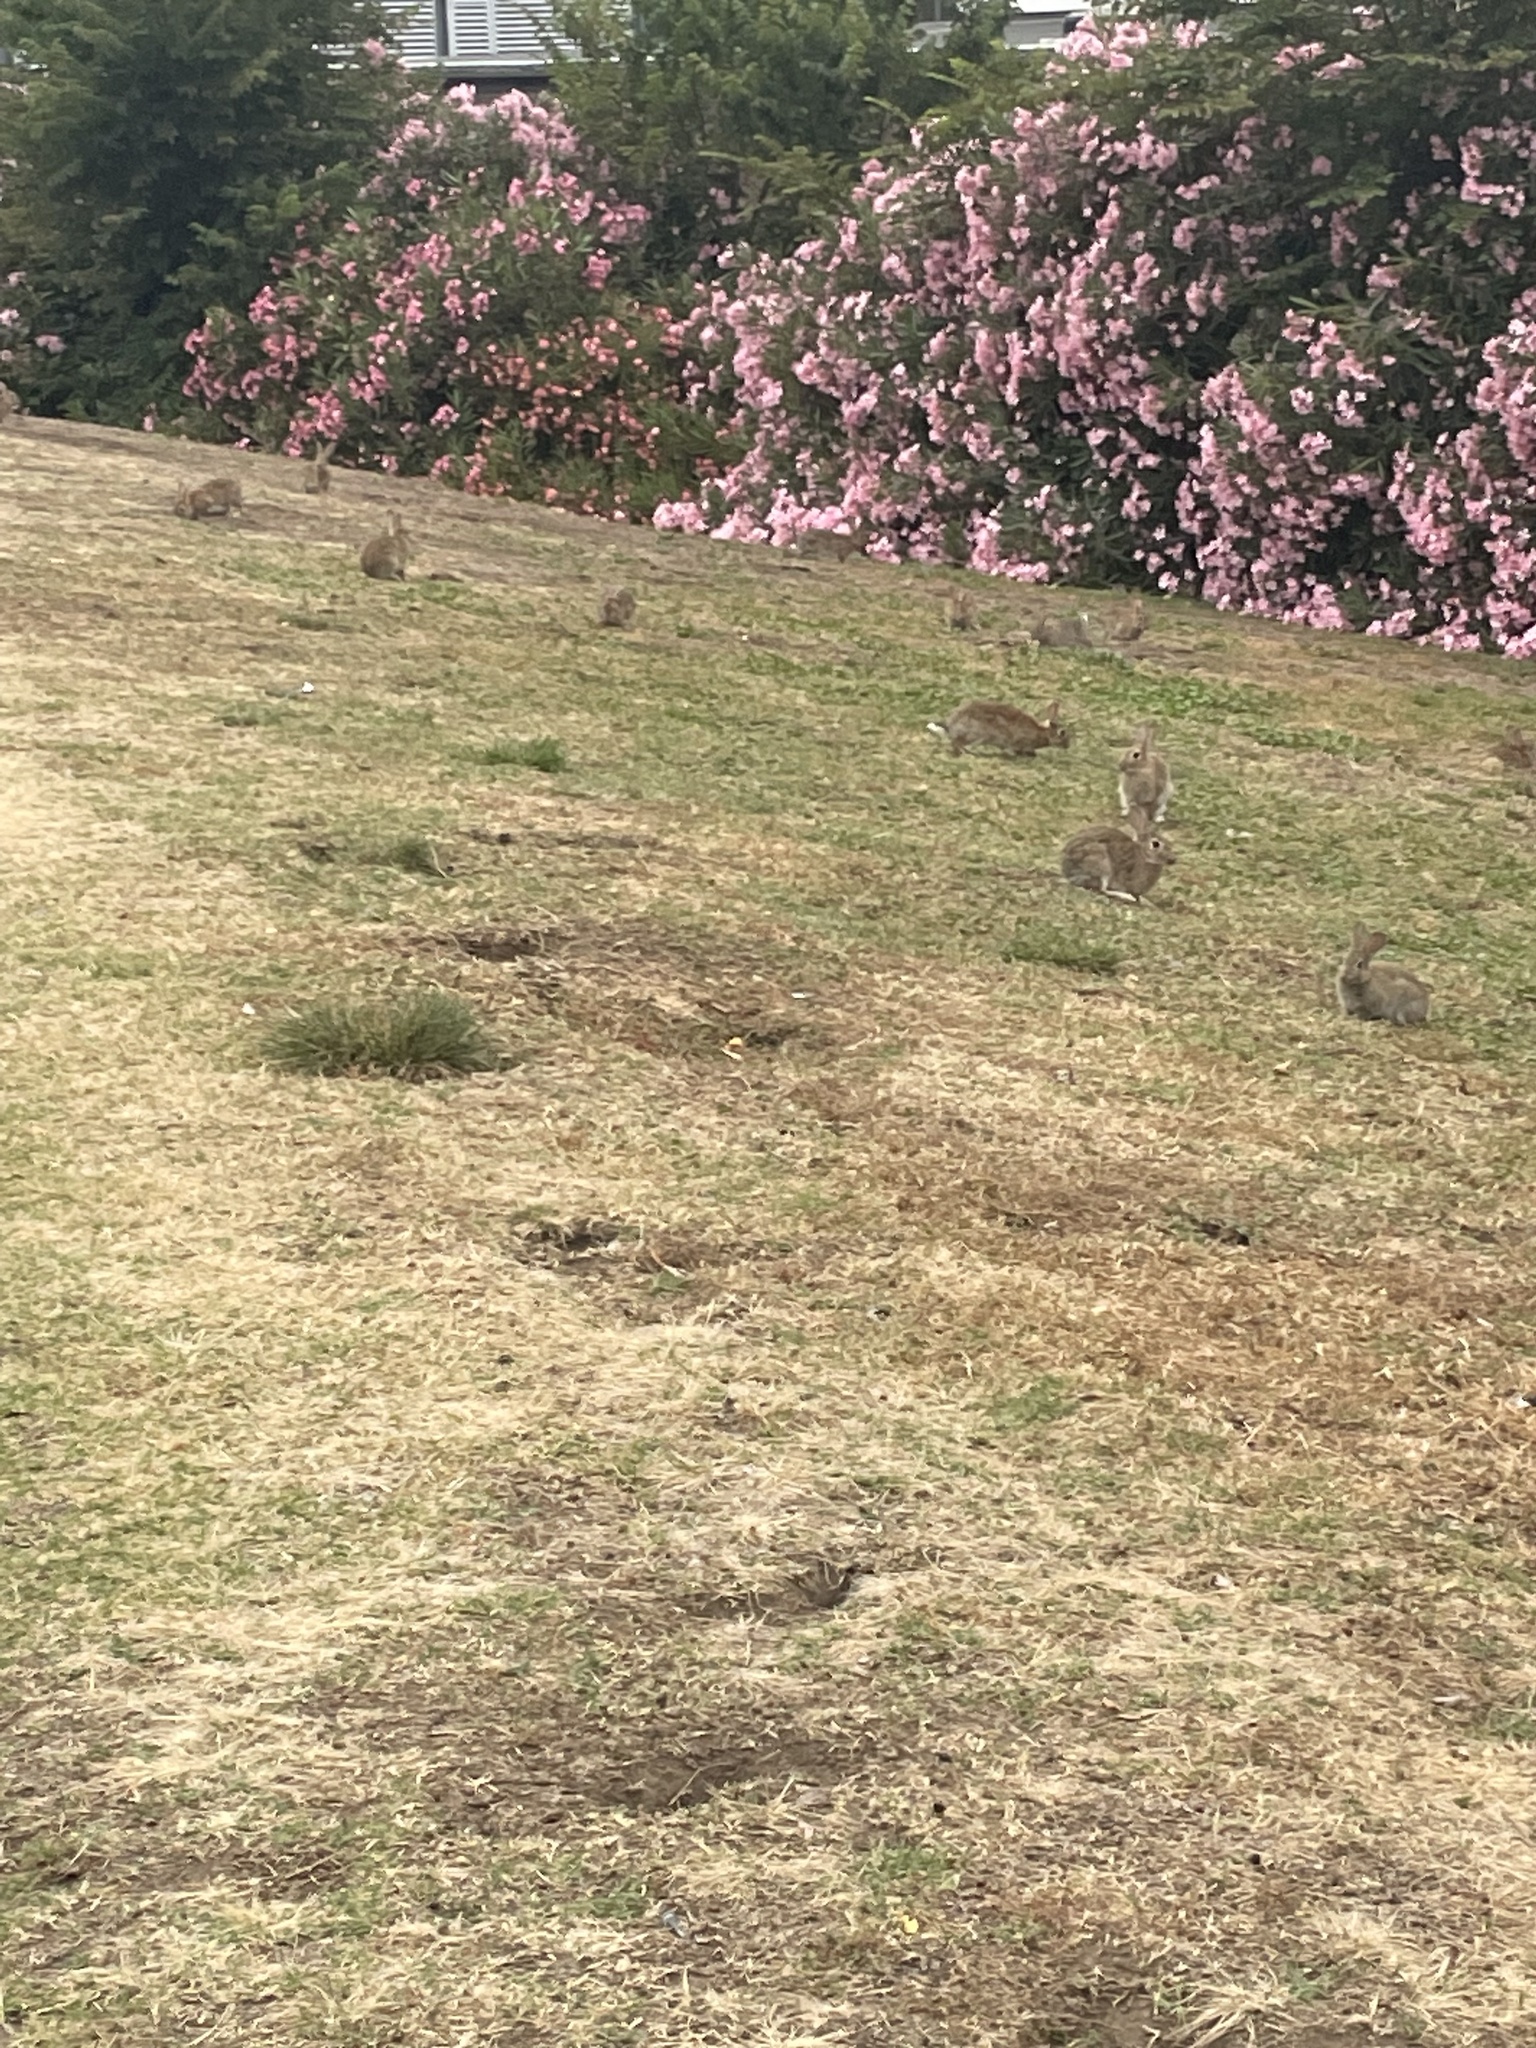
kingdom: Animalia
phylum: Chordata
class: Mammalia
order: Lagomorpha
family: Leporidae
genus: Oryctolagus
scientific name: Oryctolagus cuniculus
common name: European rabbit
